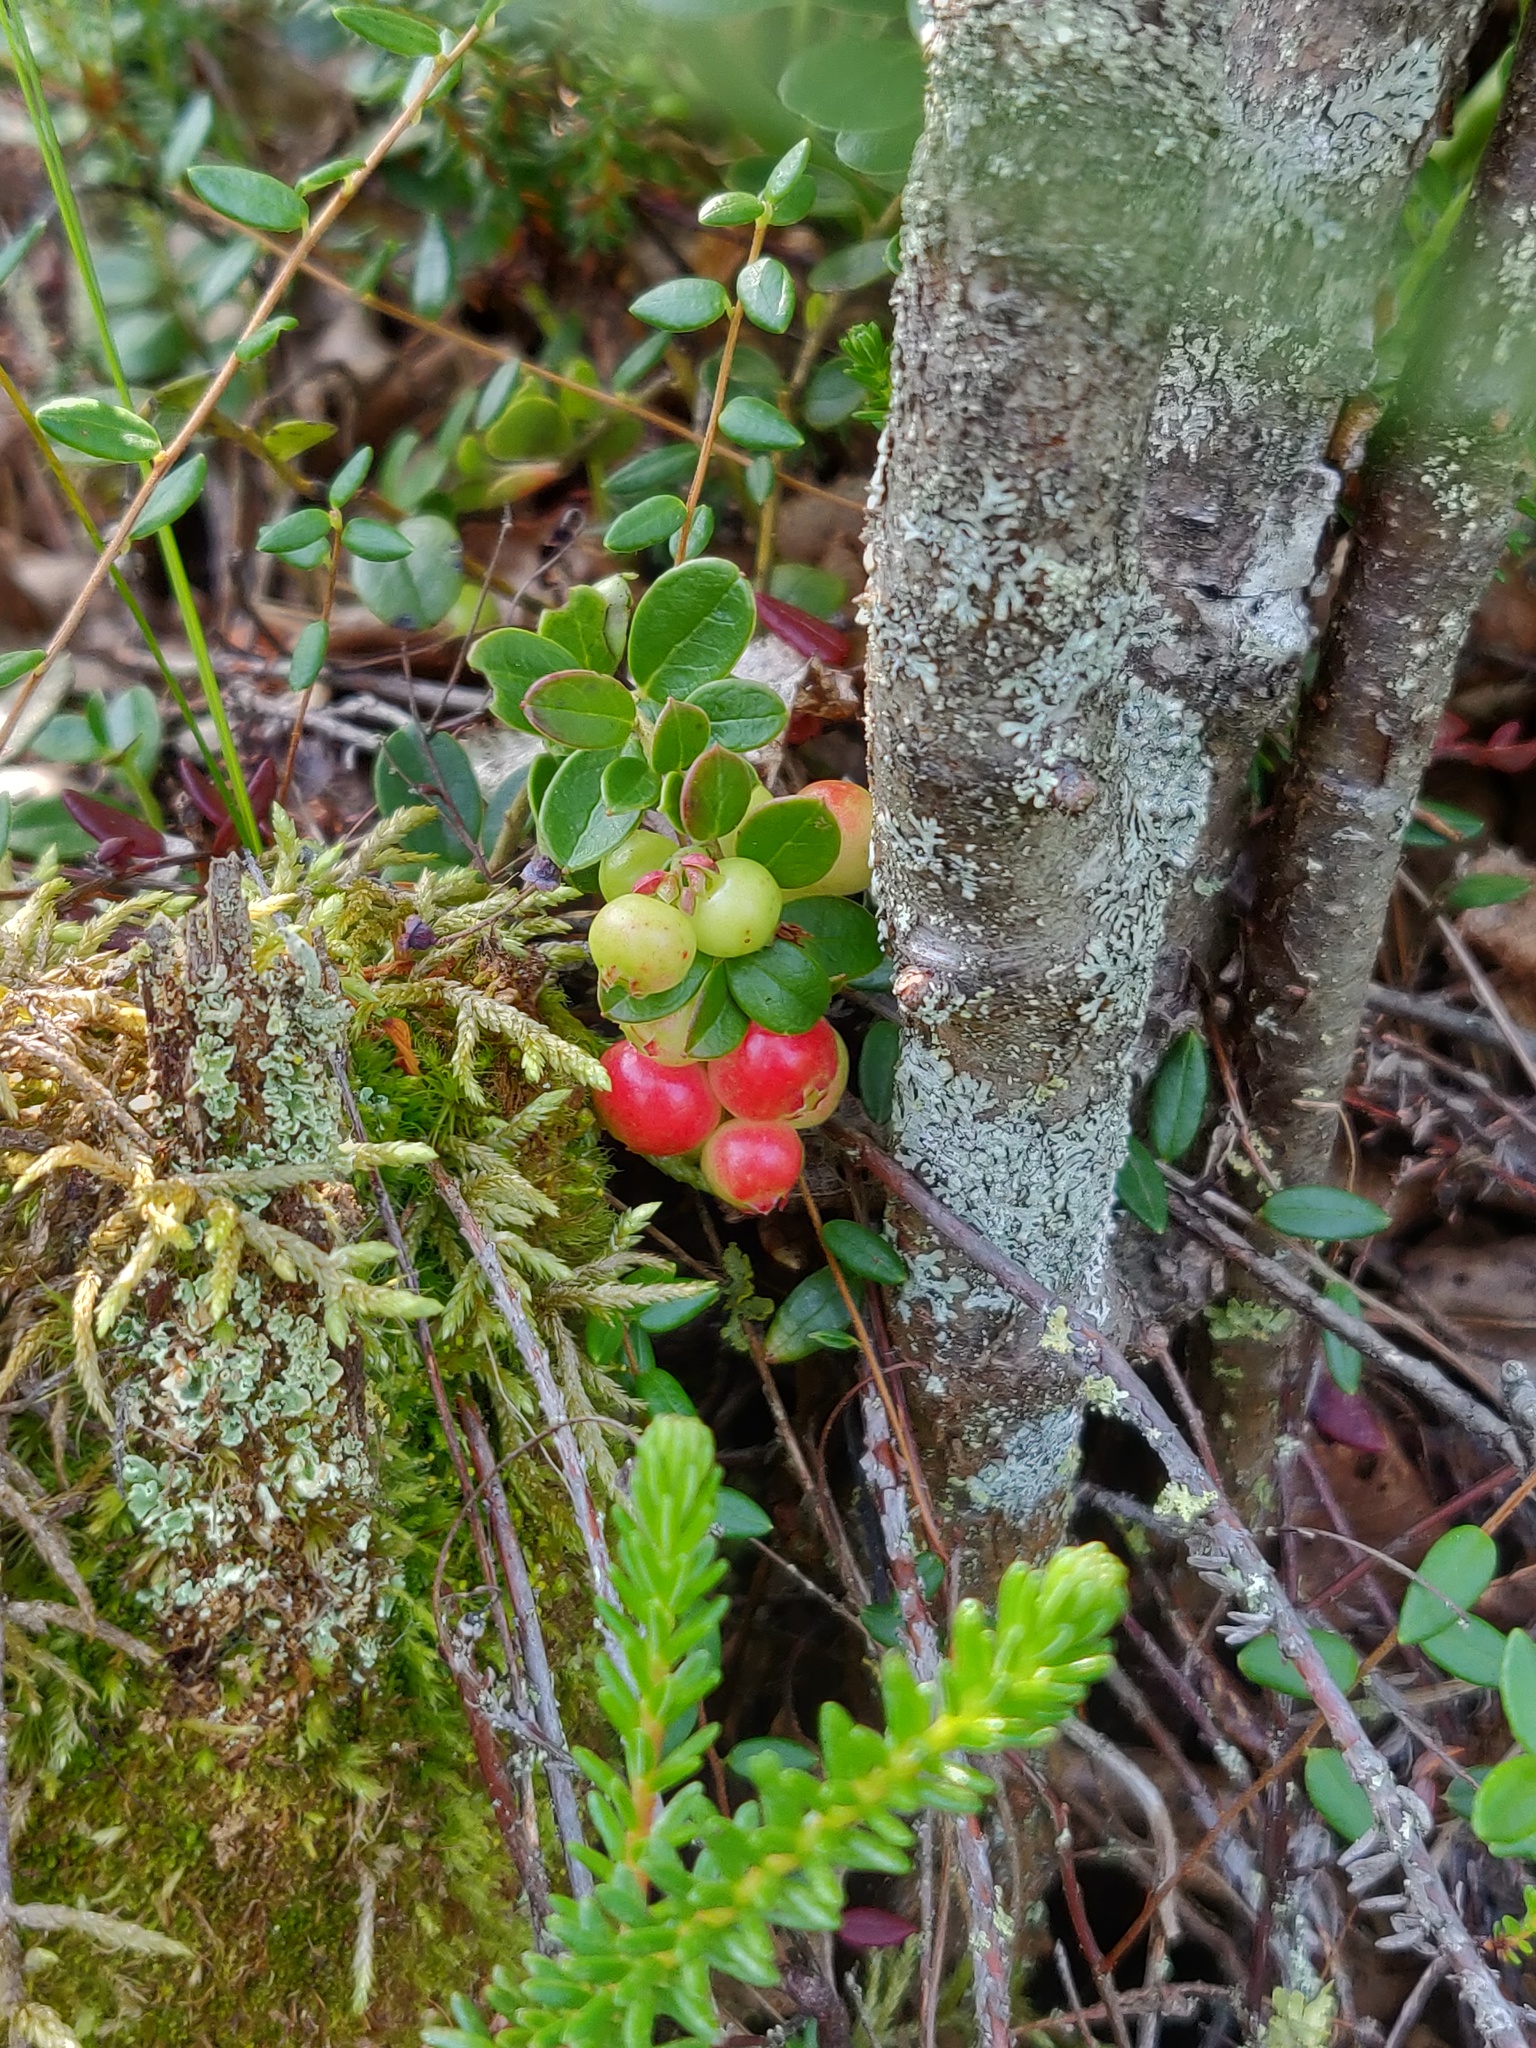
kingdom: Plantae
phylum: Tracheophyta
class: Magnoliopsida
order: Ericales
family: Ericaceae
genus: Vaccinium
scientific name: Vaccinium vitis-idaea
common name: Cowberry
